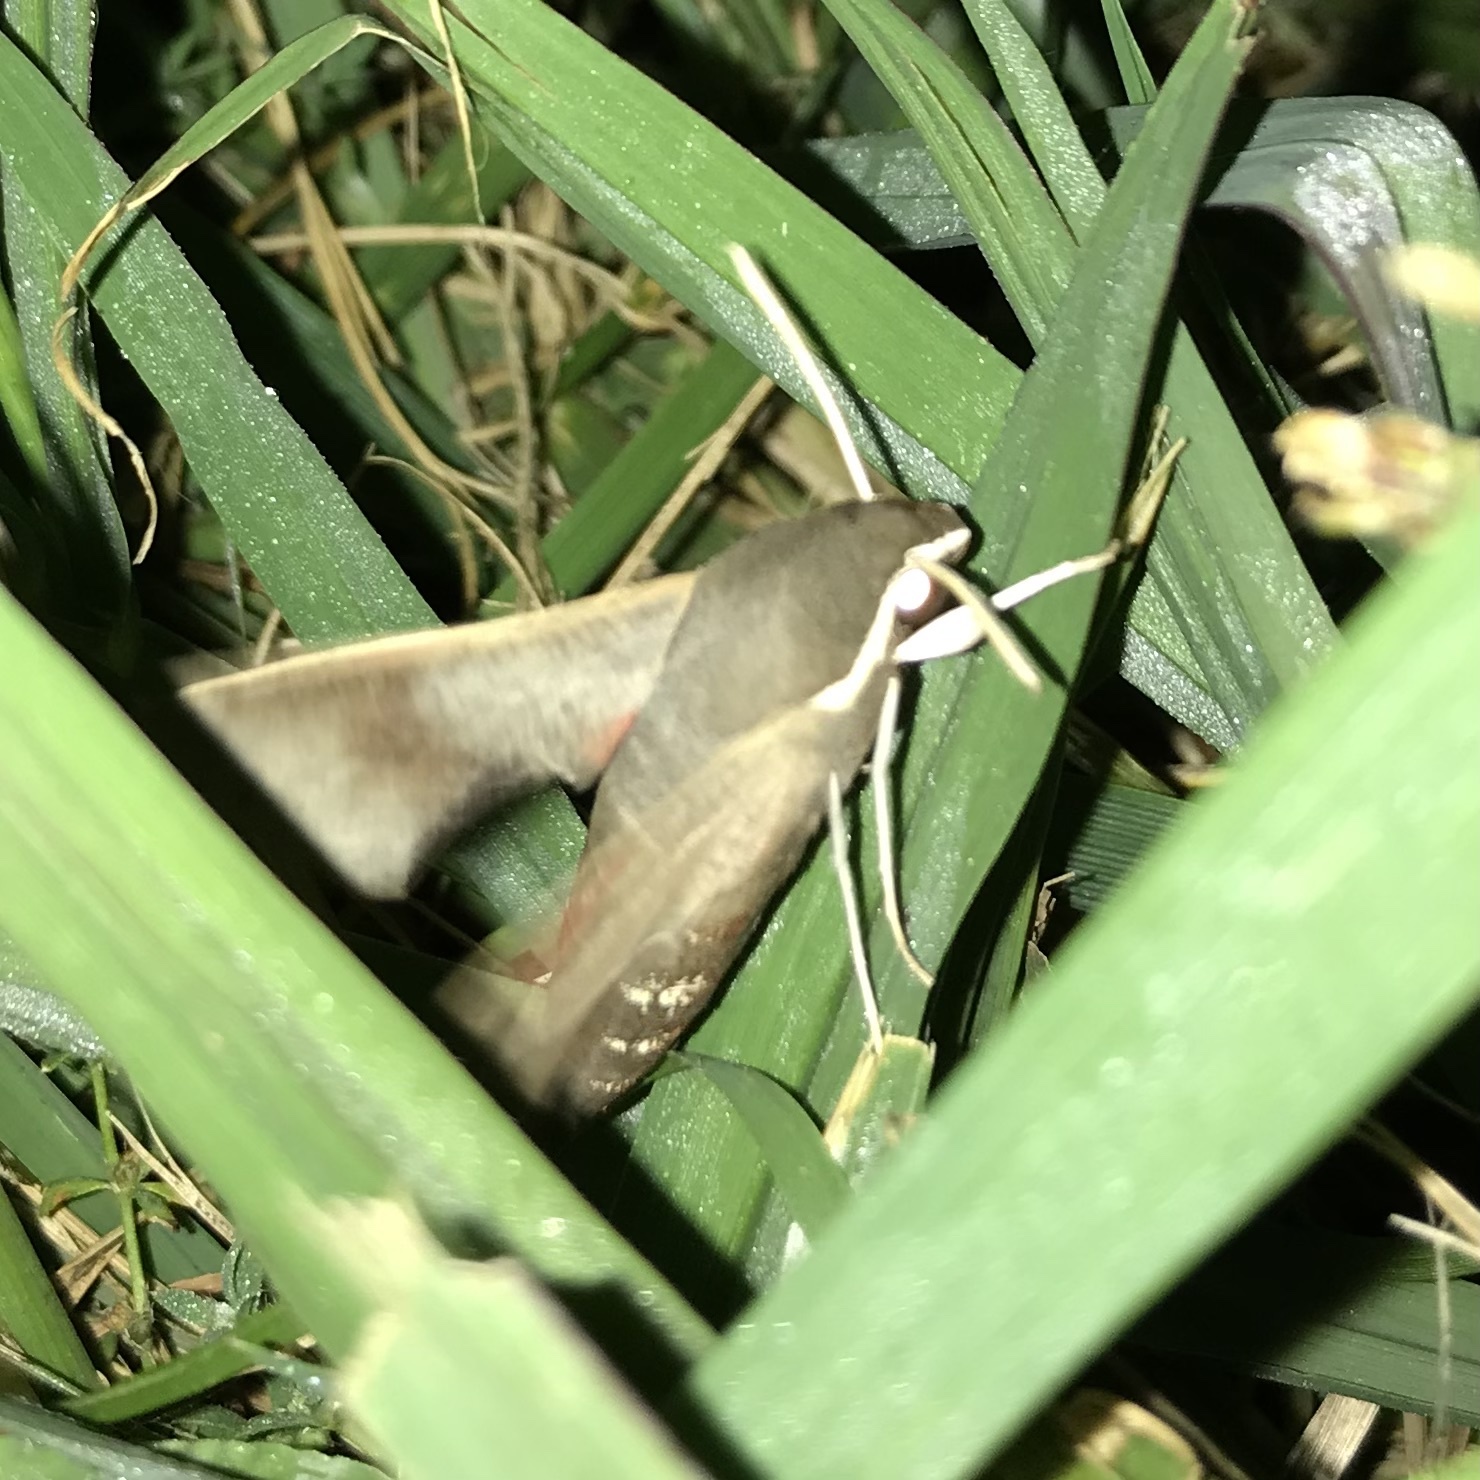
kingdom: Animalia
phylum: Arthropoda
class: Insecta
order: Lepidoptera
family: Sphingidae
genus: Hippotion
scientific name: Hippotion scrofa
